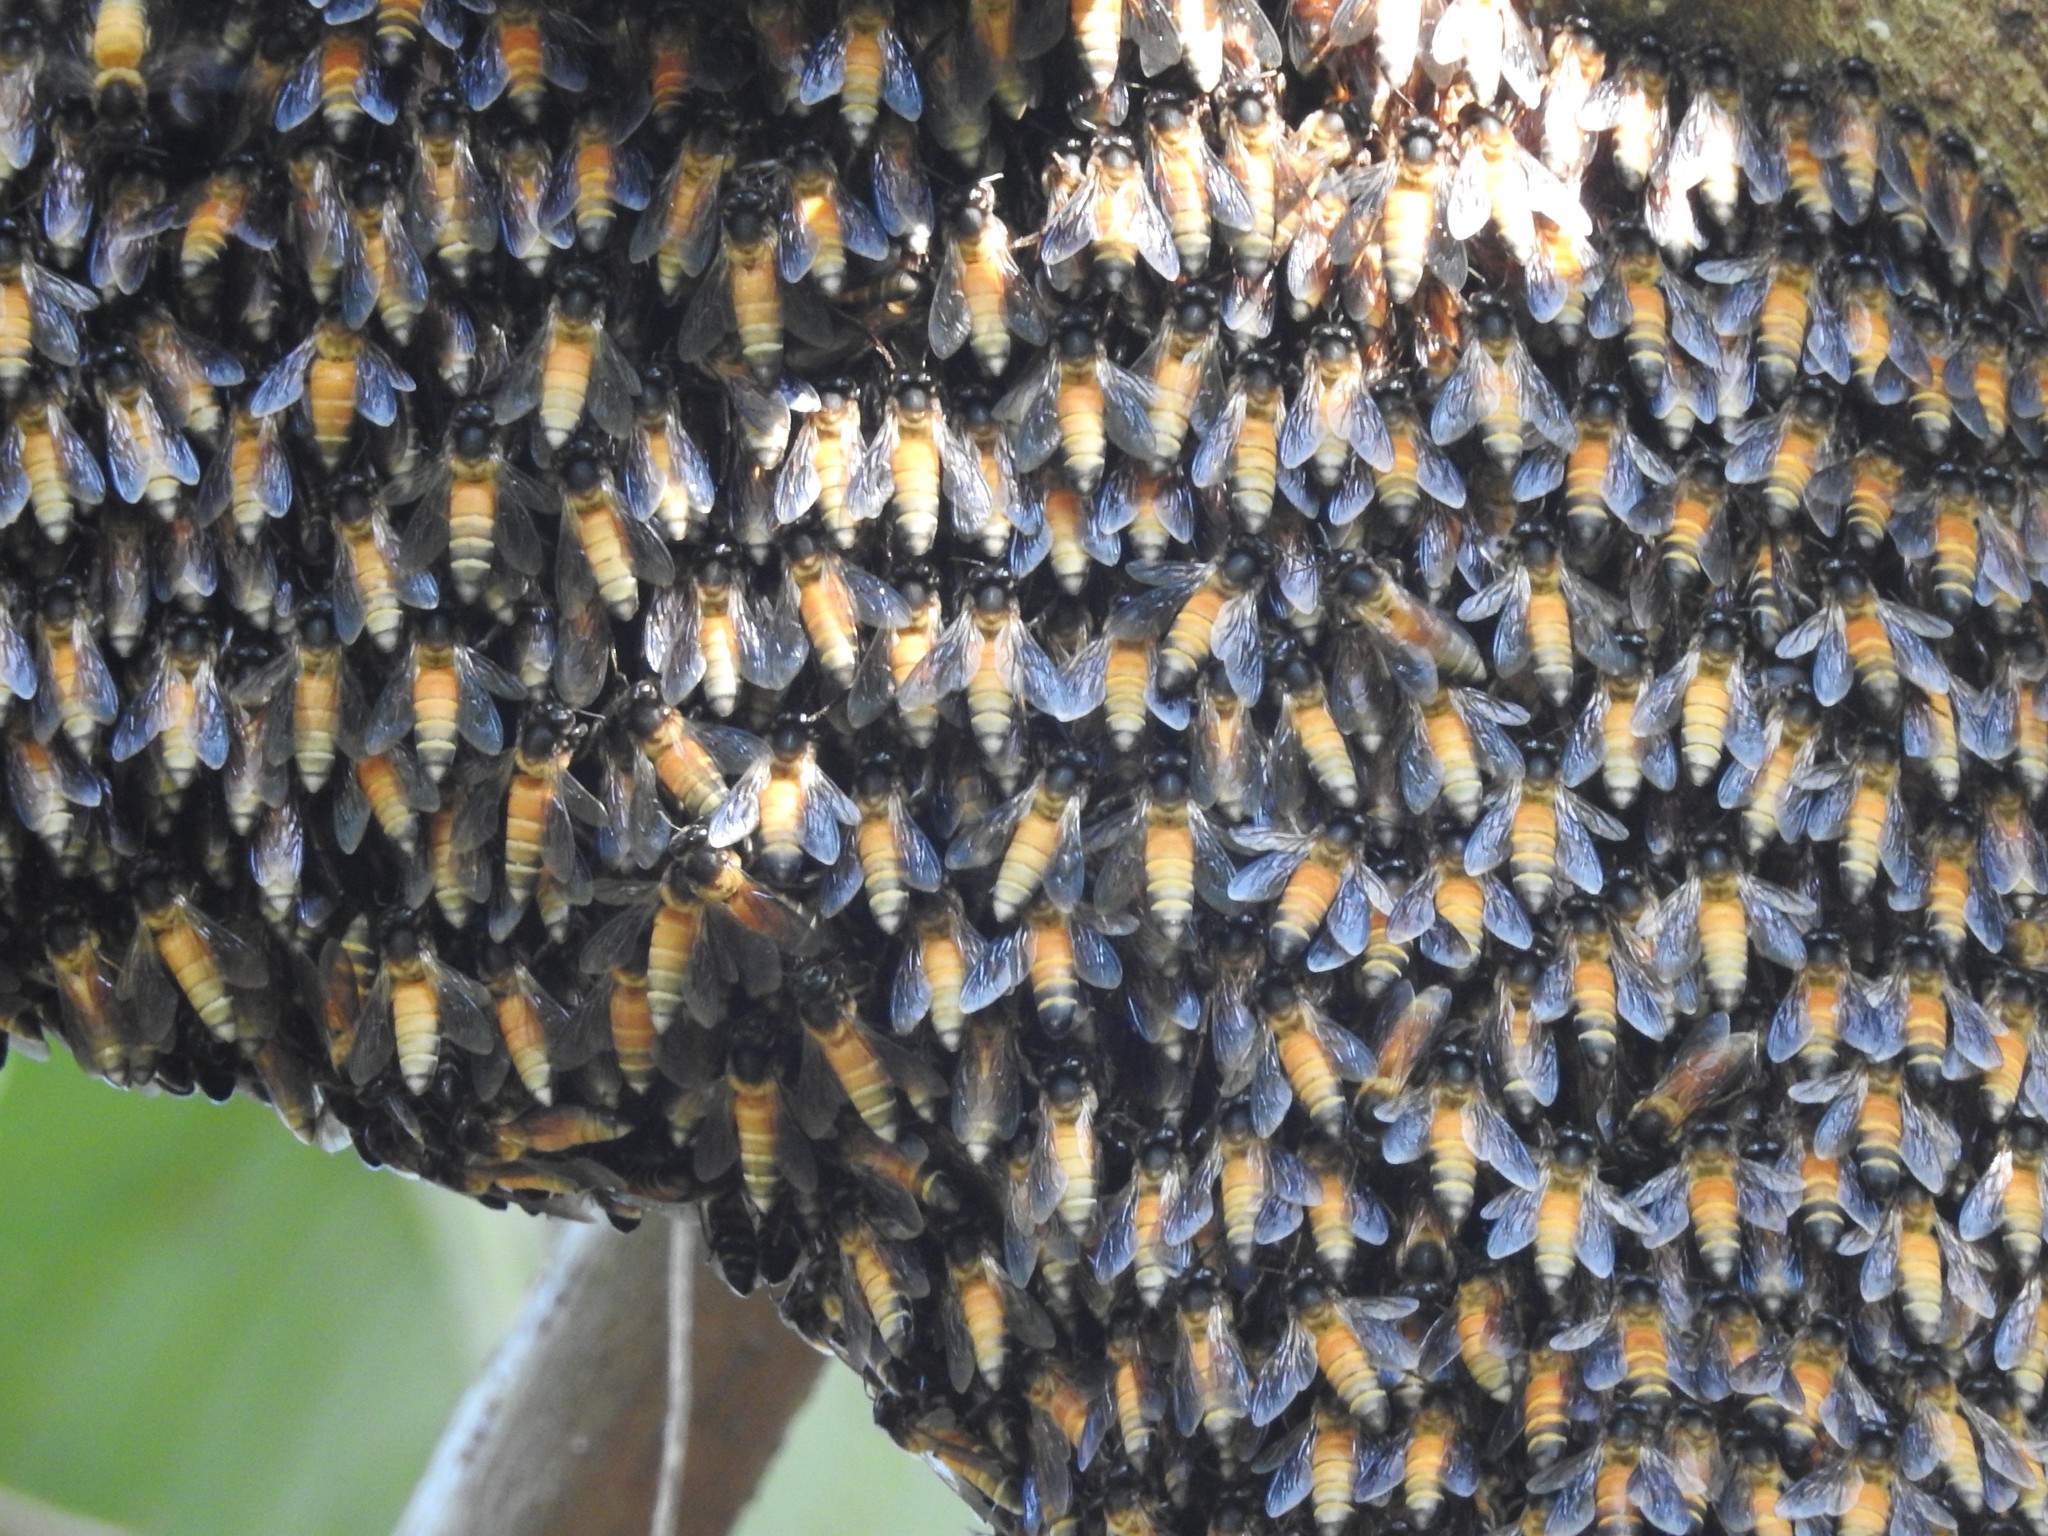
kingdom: Animalia
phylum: Arthropoda
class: Insecta
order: Hymenoptera
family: Apidae
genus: Apis
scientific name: Apis dorsata
